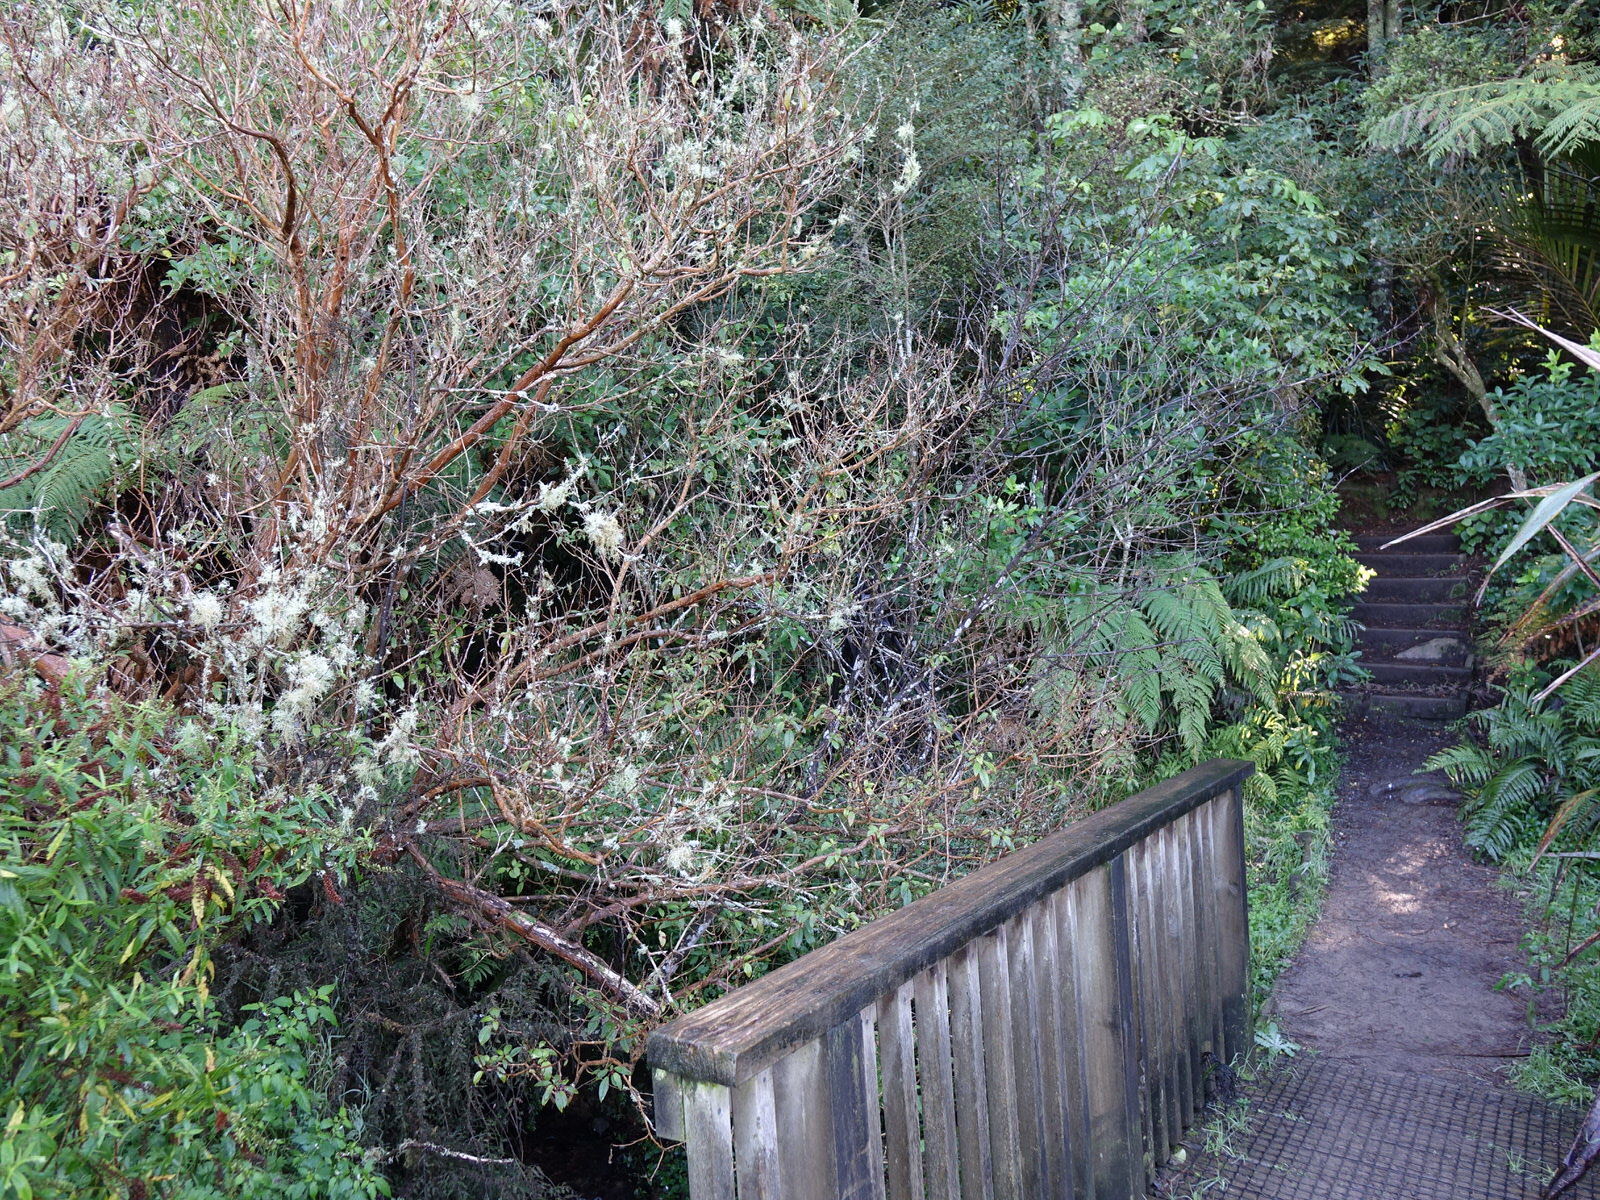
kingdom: Plantae
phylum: Tracheophyta
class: Magnoliopsida
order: Myrtales
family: Onagraceae
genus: Fuchsia
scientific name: Fuchsia excorticata
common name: Tree fuchsia
